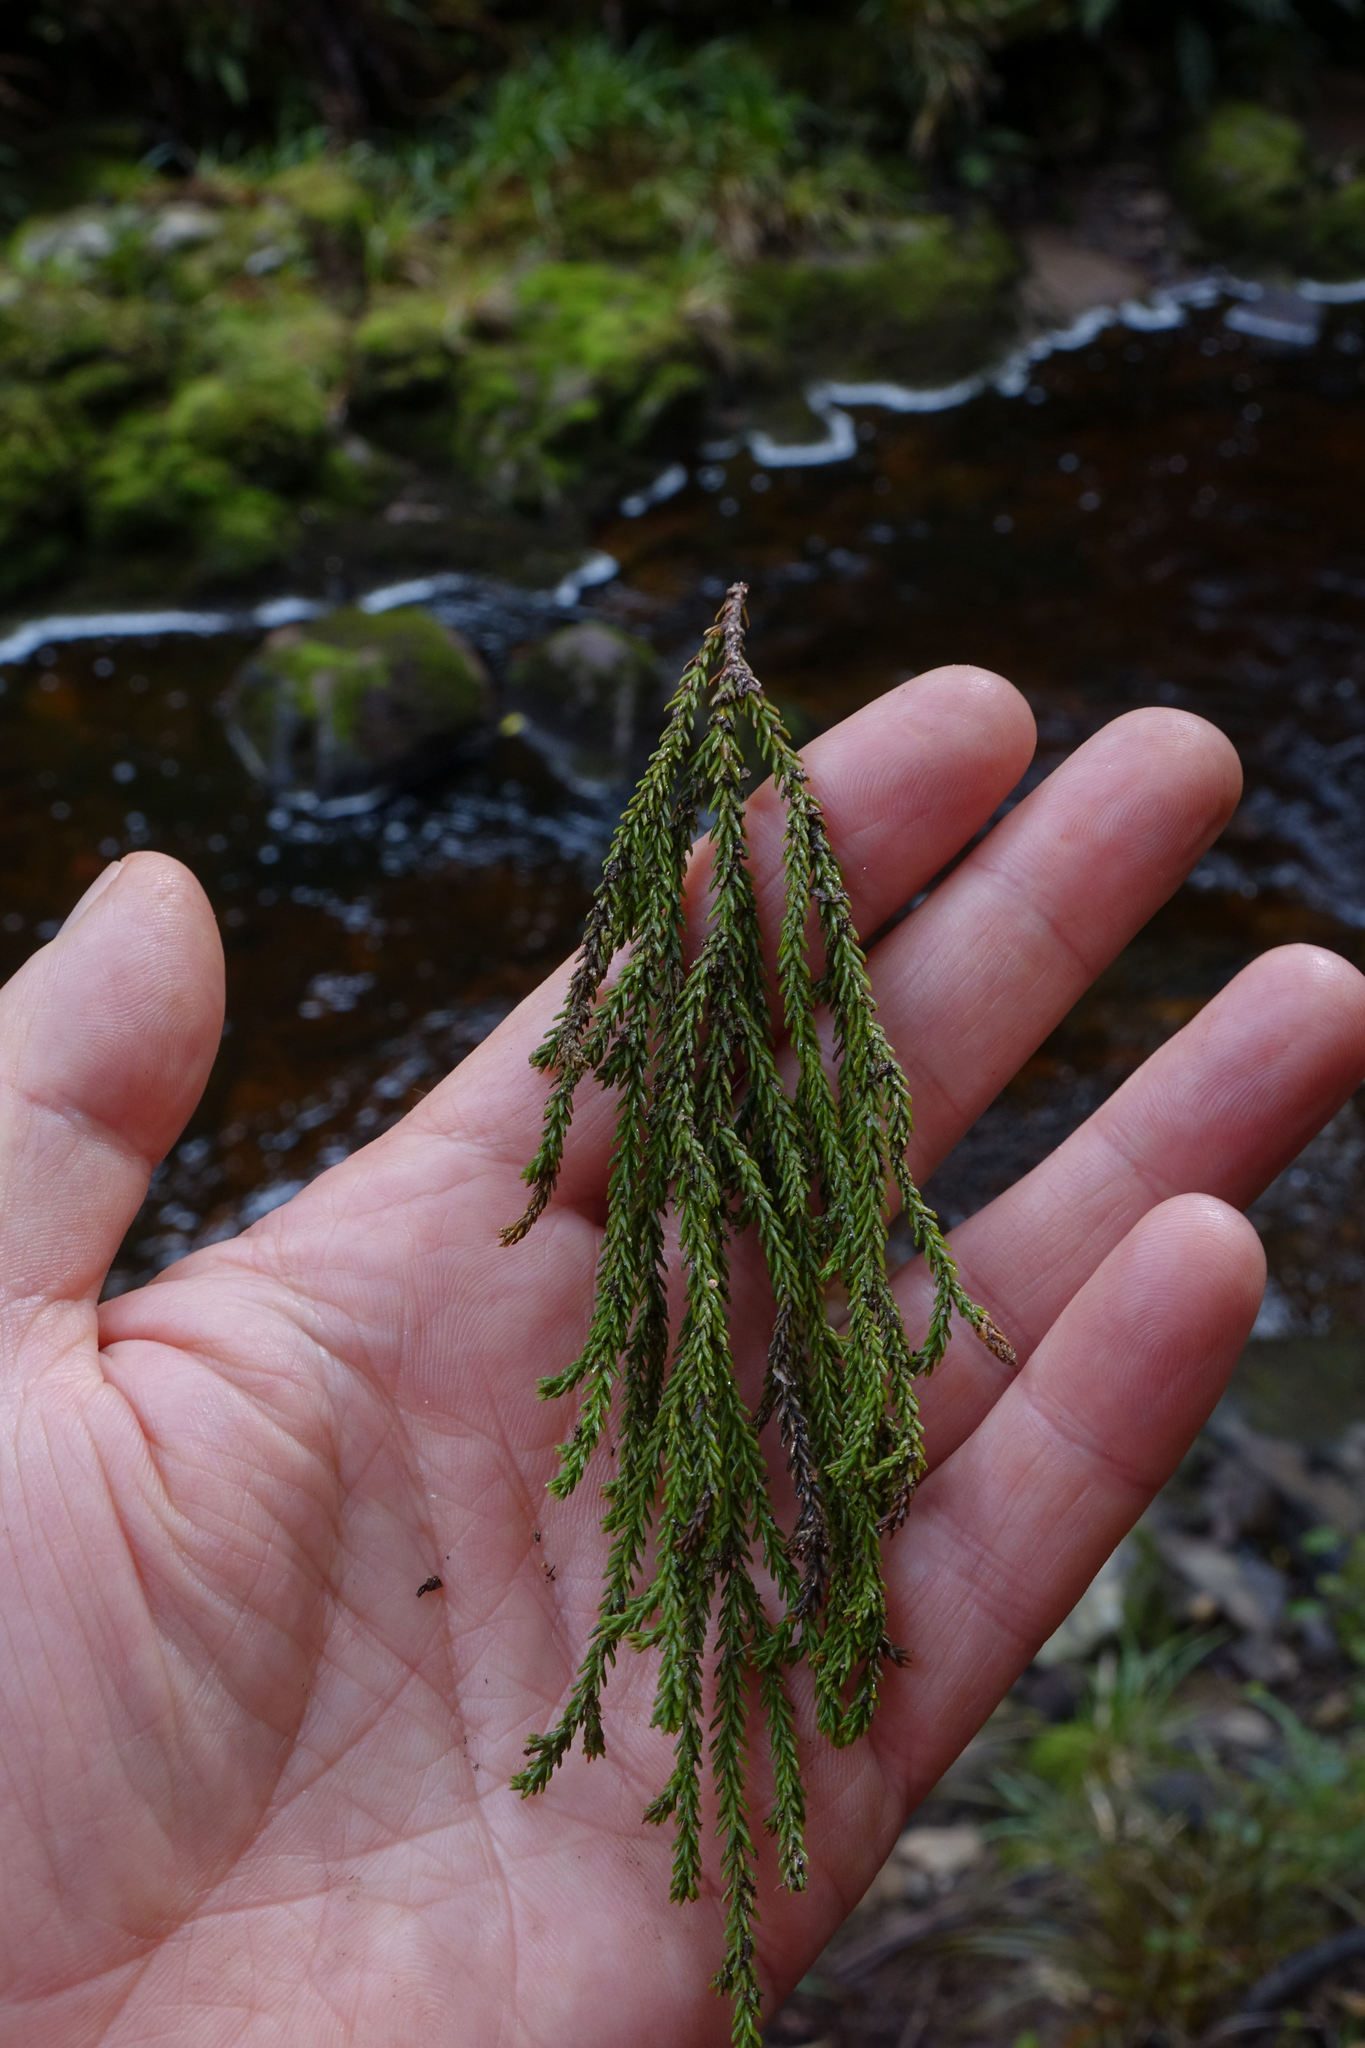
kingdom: Plantae
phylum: Tracheophyta
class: Pinopsida
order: Pinales
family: Podocarpaceae
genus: Dacrydium
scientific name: Dacrydium cupressinum
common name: Red pine
